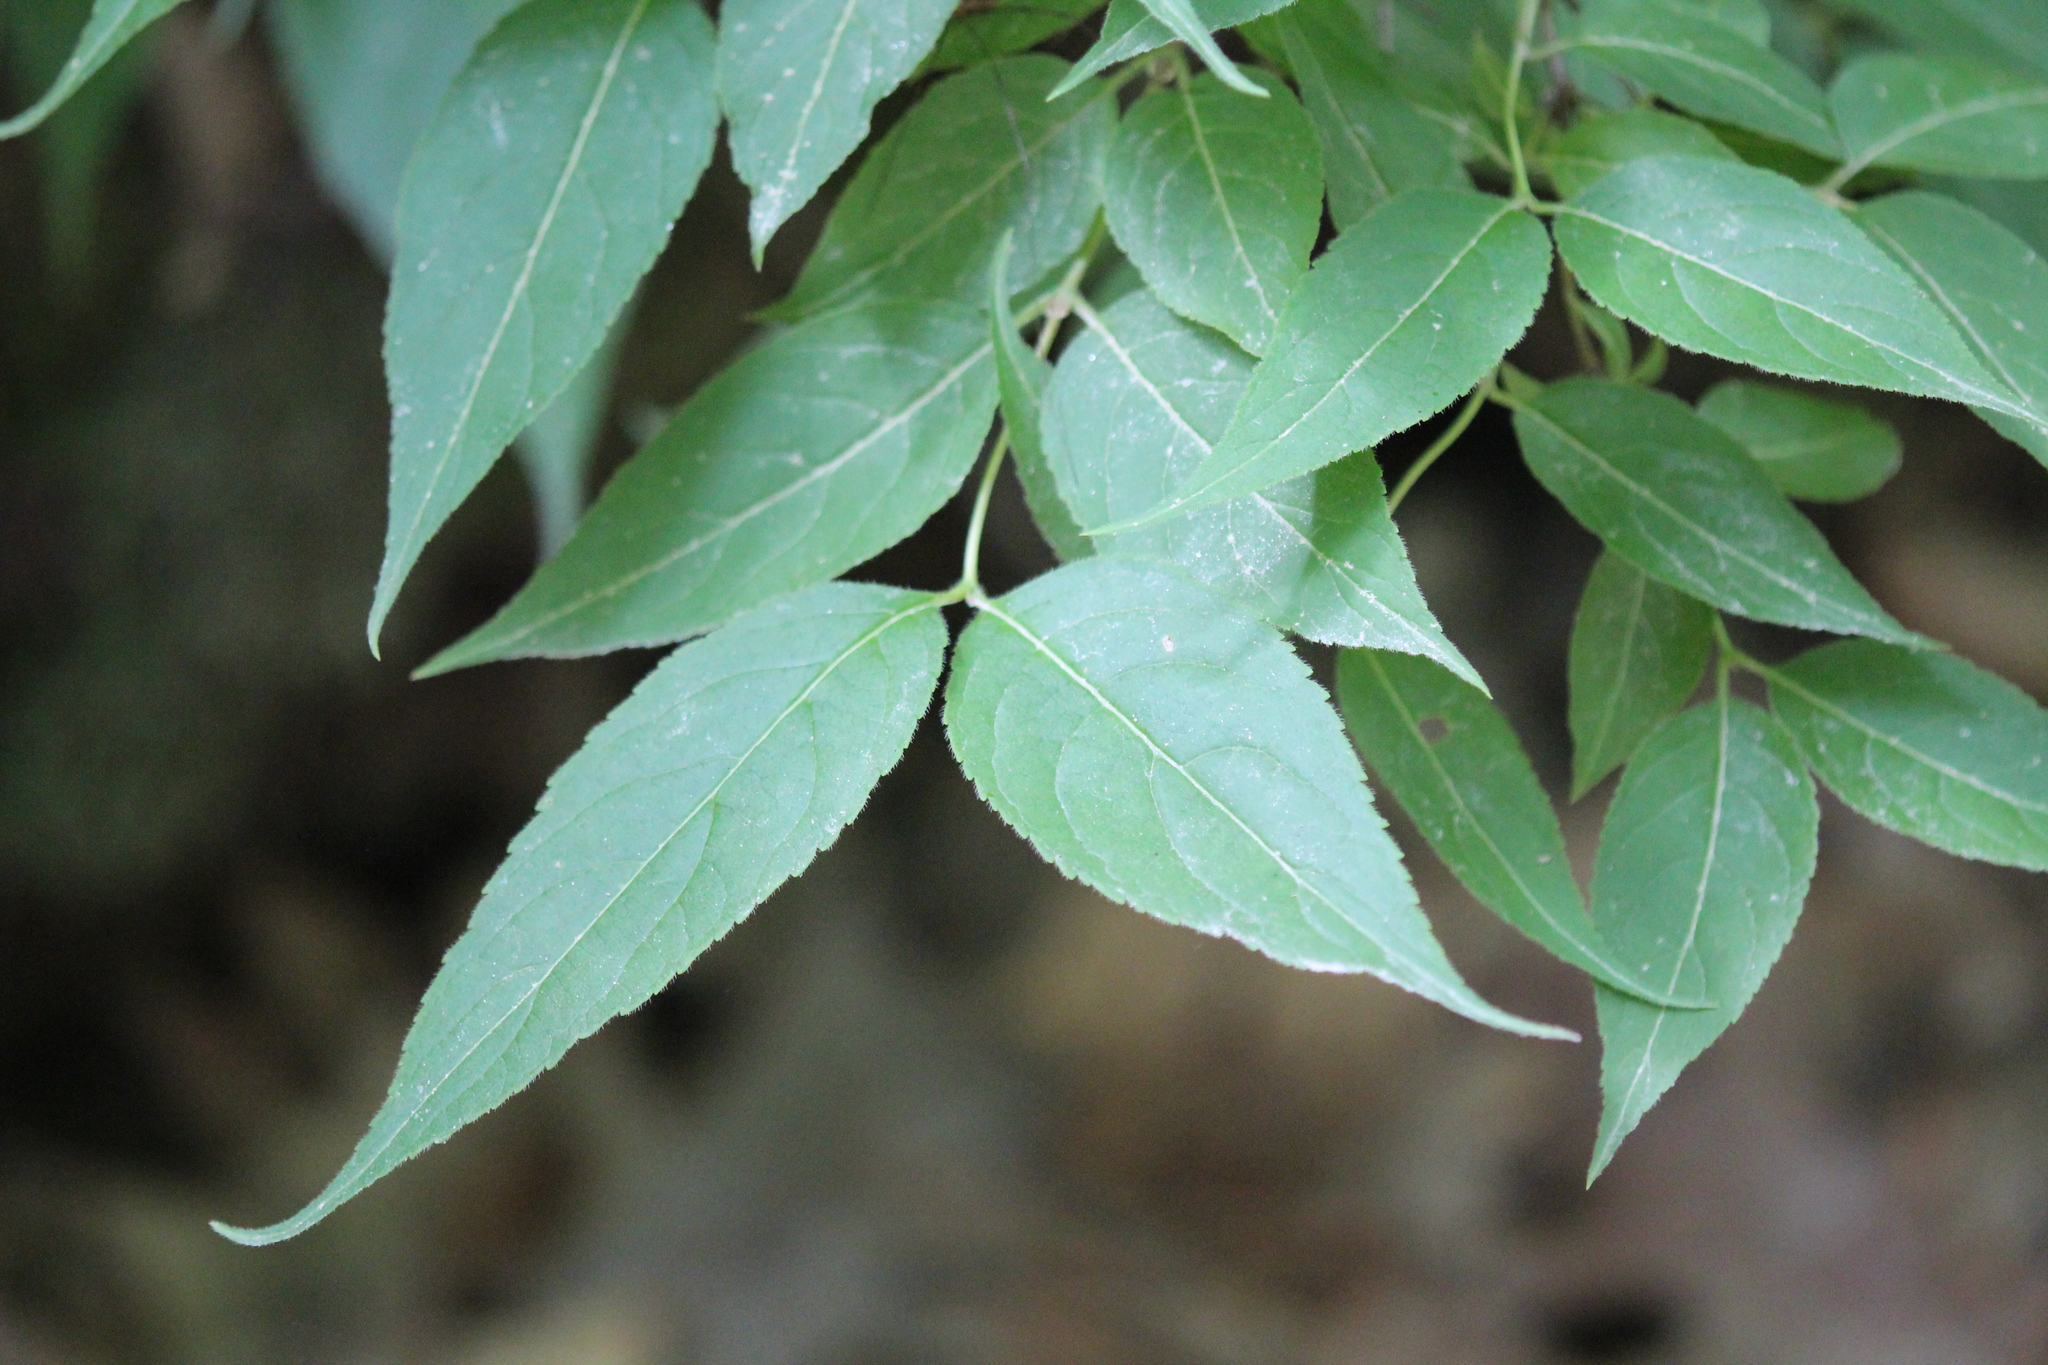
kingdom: Plantae
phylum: Tracheophyta
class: Magnoliopsida
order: Dipsacales
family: Caprifoliaceae
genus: Diervilla
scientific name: Diervilla lonicera
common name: Bush-honeysuckle
